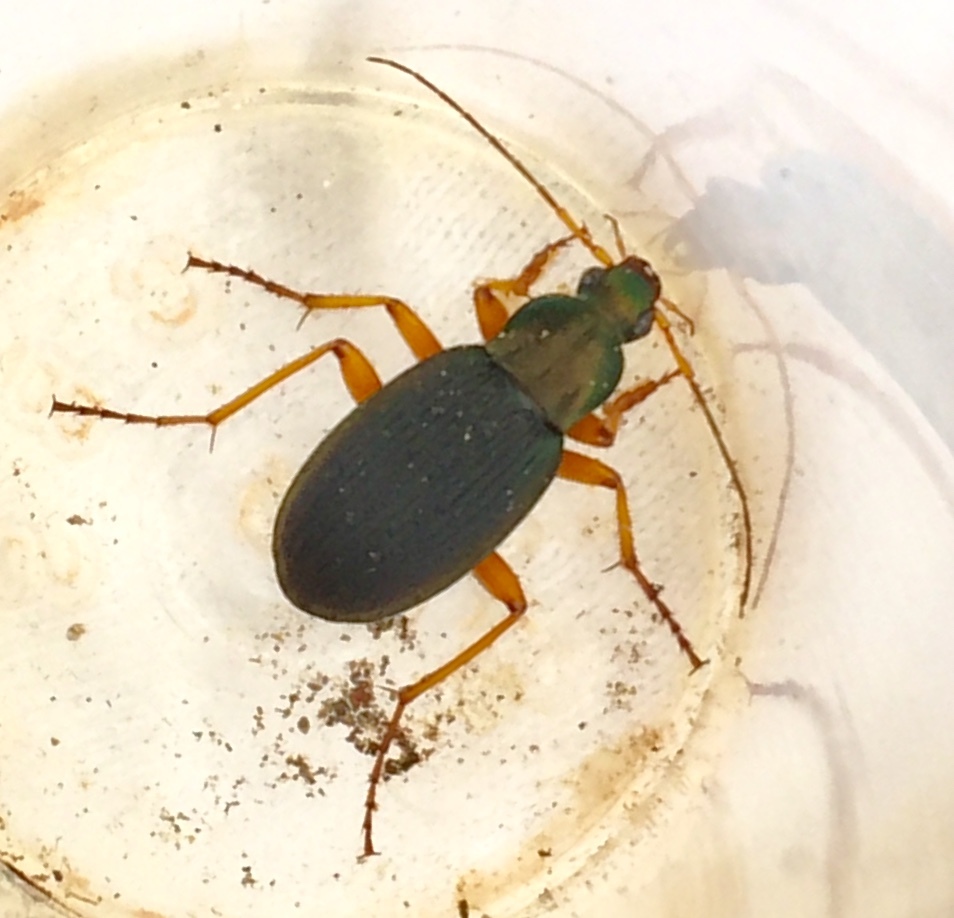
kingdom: Animalia
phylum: Arthropoda
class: Insecta
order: Coleoptera
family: Carabidae
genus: Chlaenius
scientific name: Chlaenius aestivus
